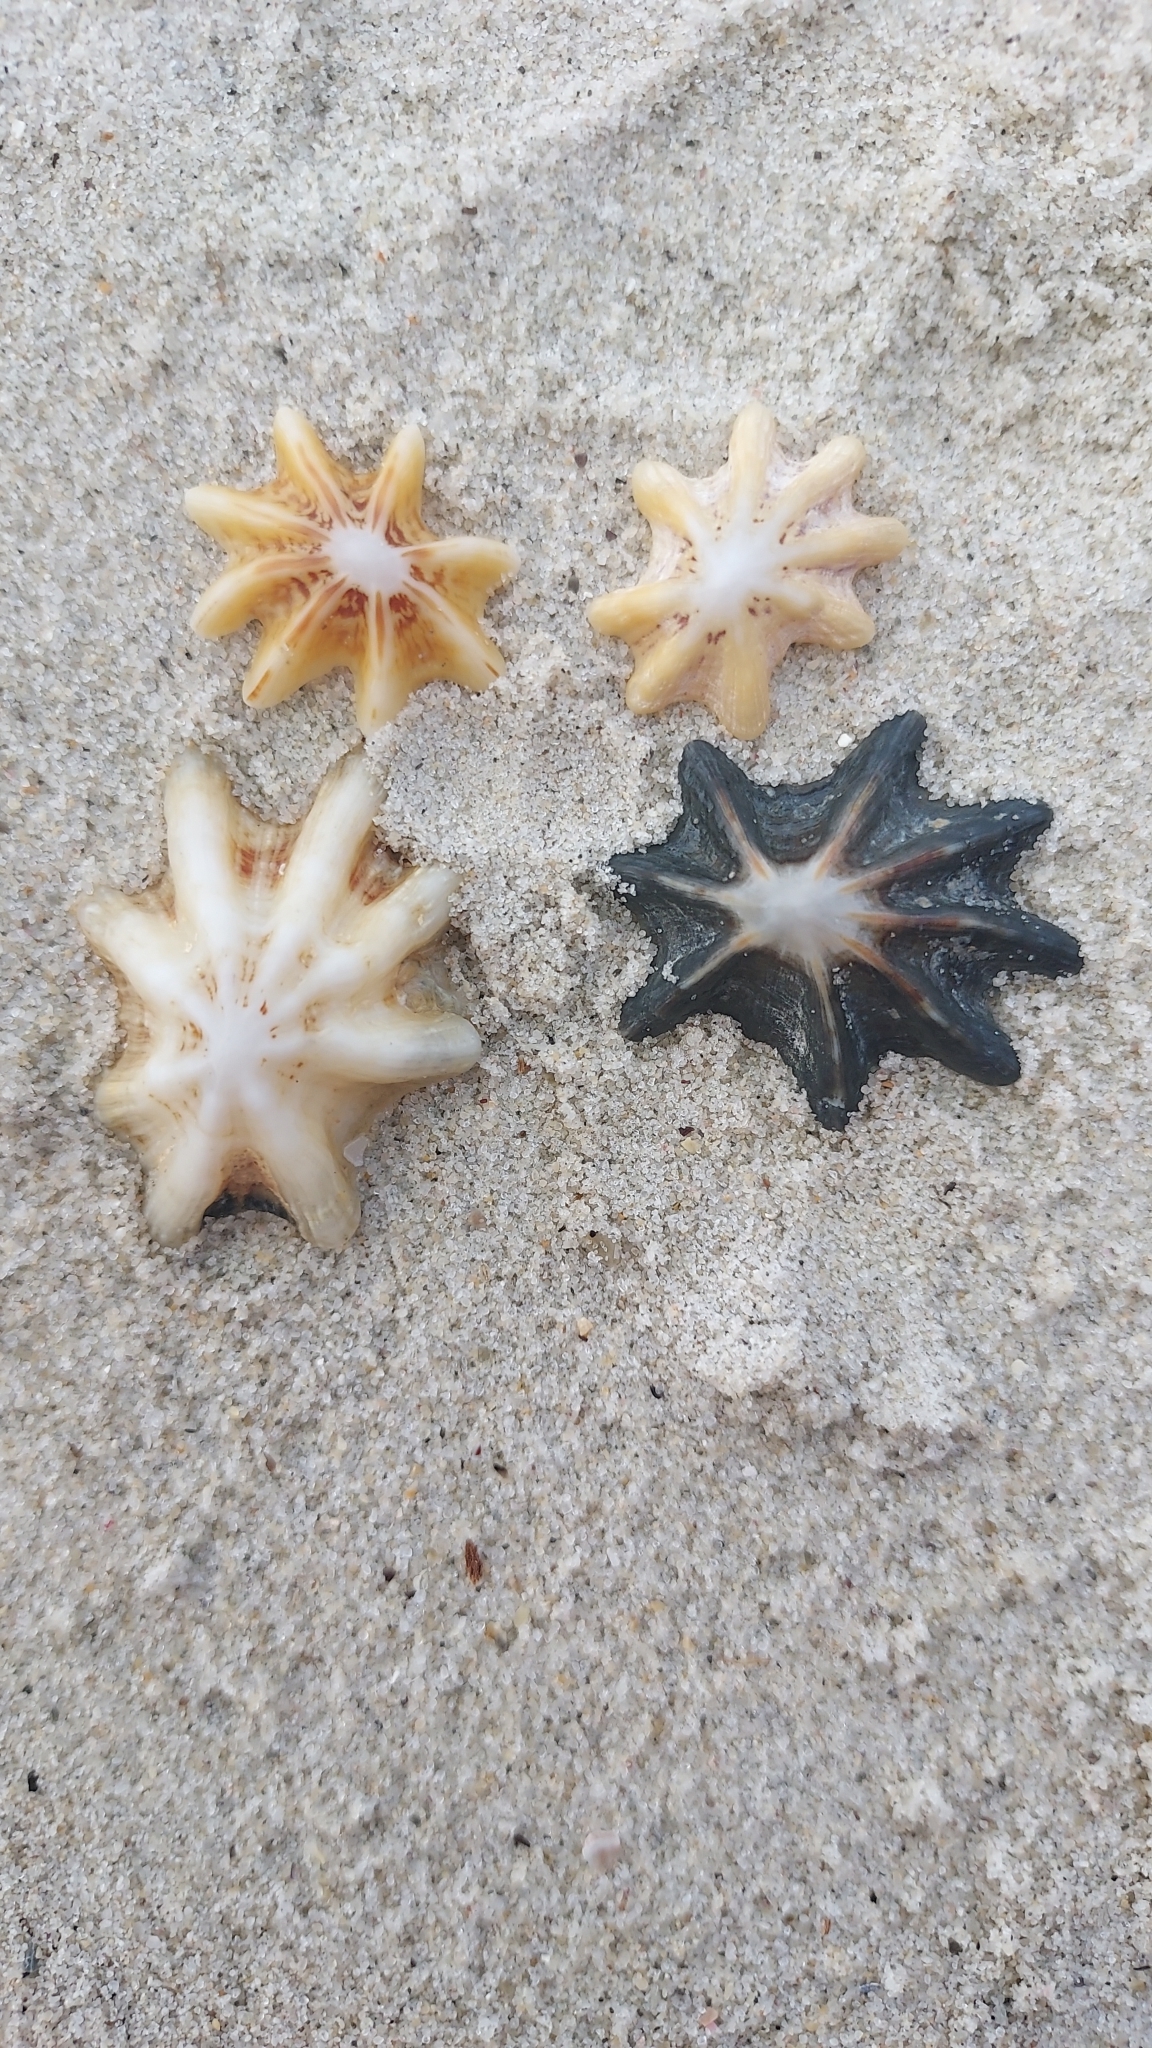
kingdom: Animalia
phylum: Mollusca
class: Gastropoda
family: Patellidae
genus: Scutellastra
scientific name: Scutellastra chapmani
